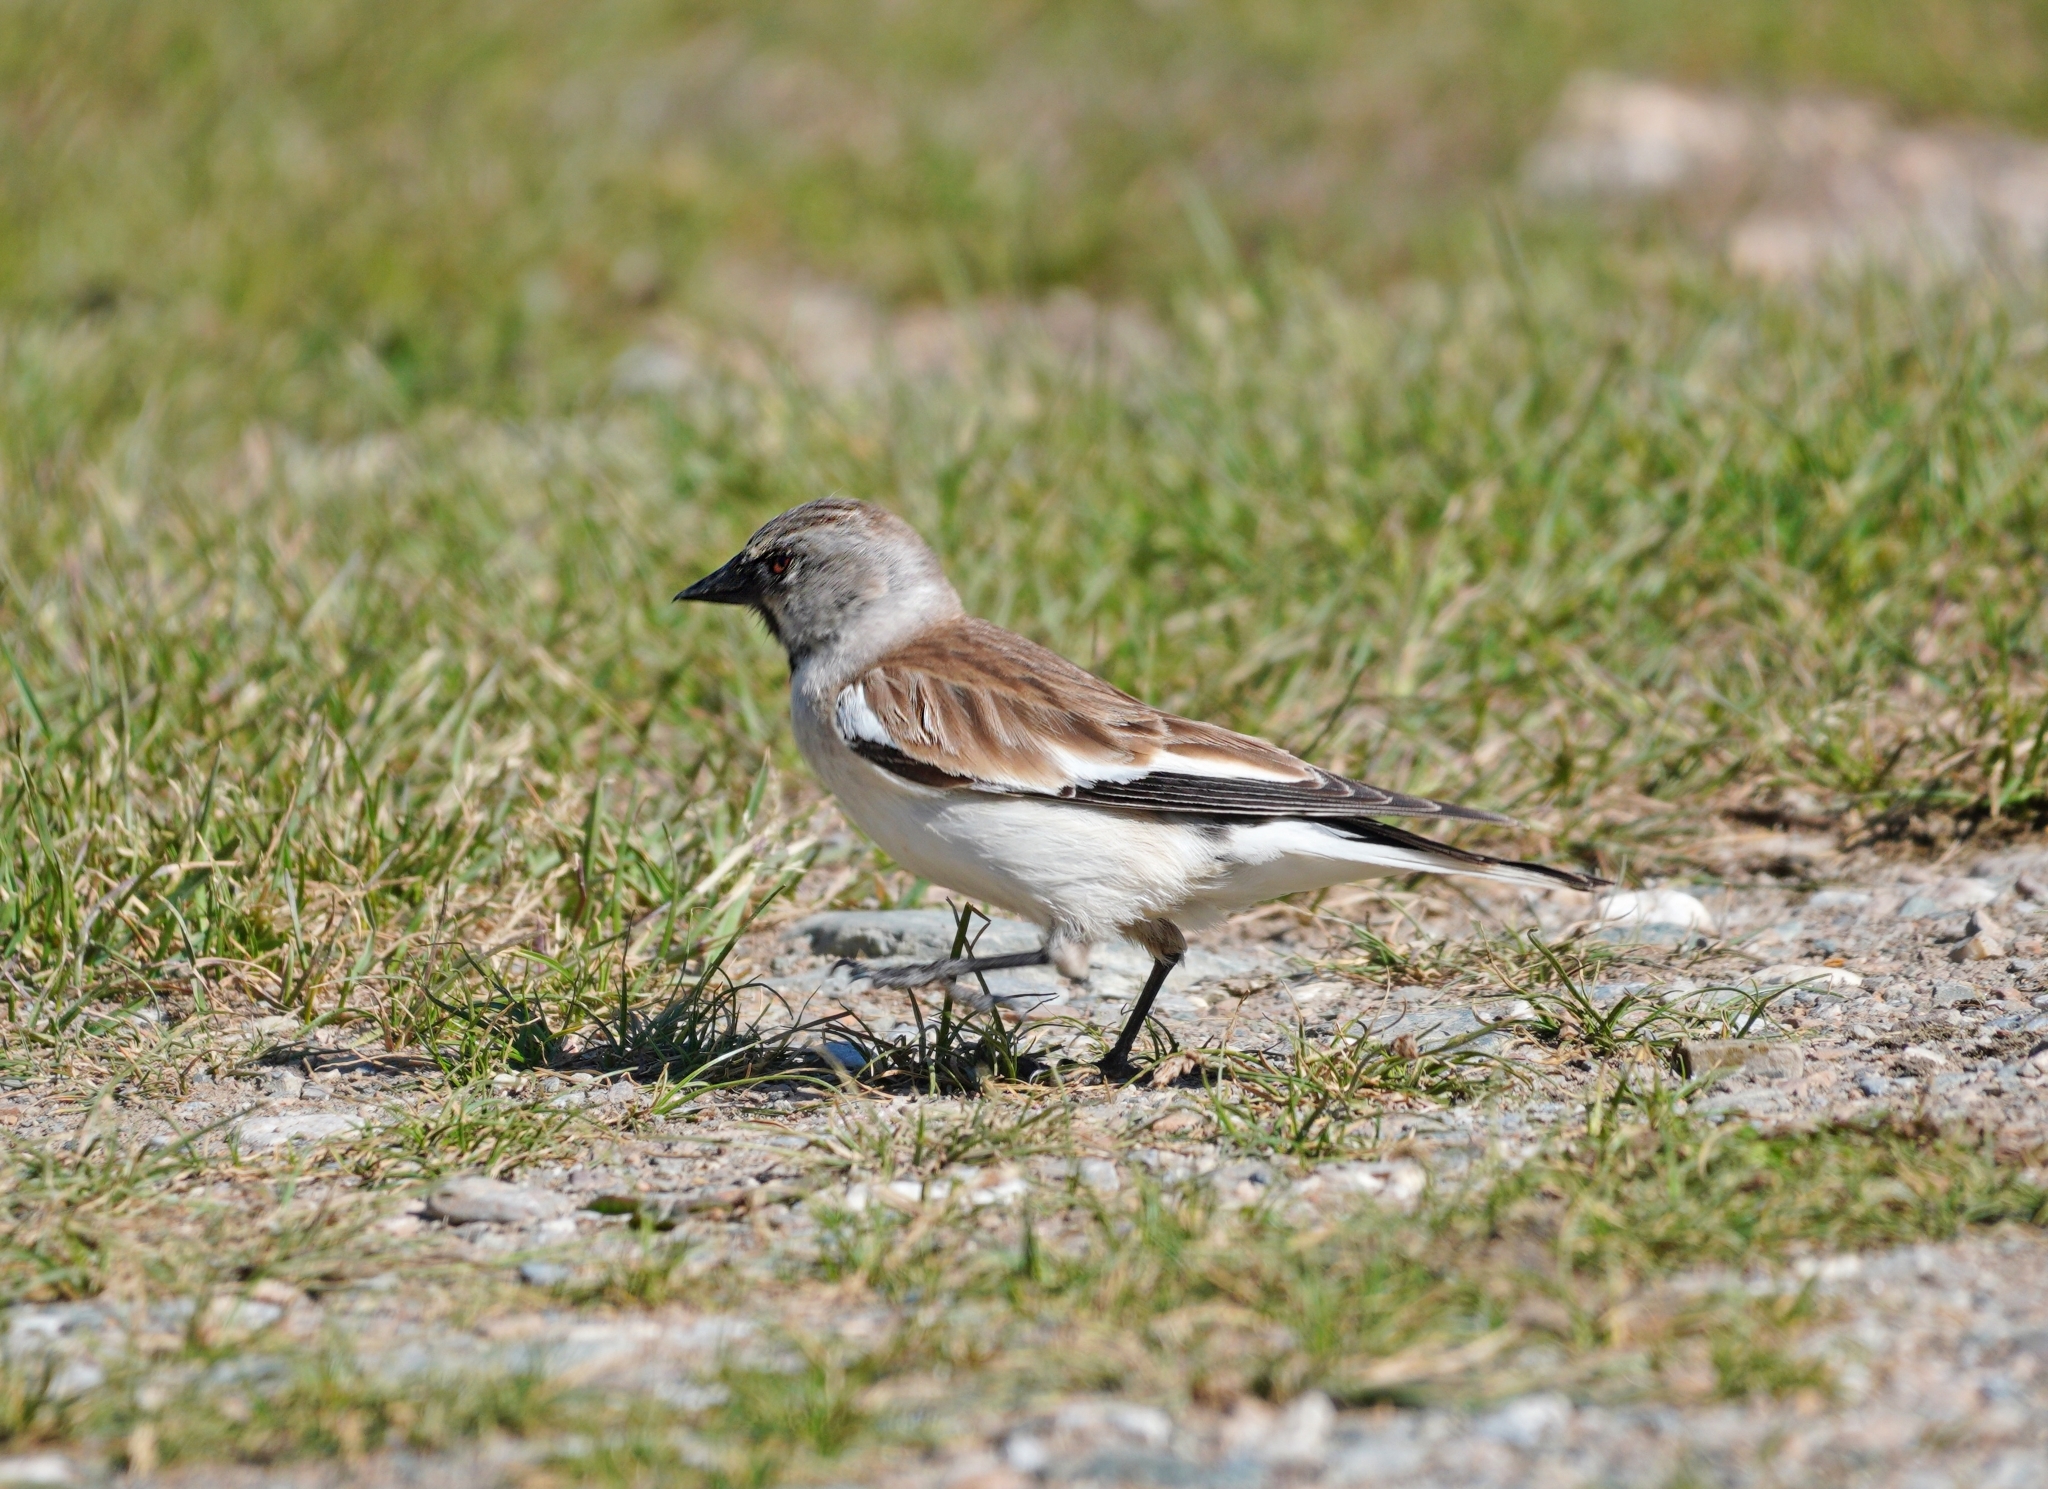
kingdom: Animalia
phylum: Chordata
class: Aves
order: Passeriformes
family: Passeridae
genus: Montifringilla
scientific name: Montifringilla nivalis
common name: White-winged snowfinch
